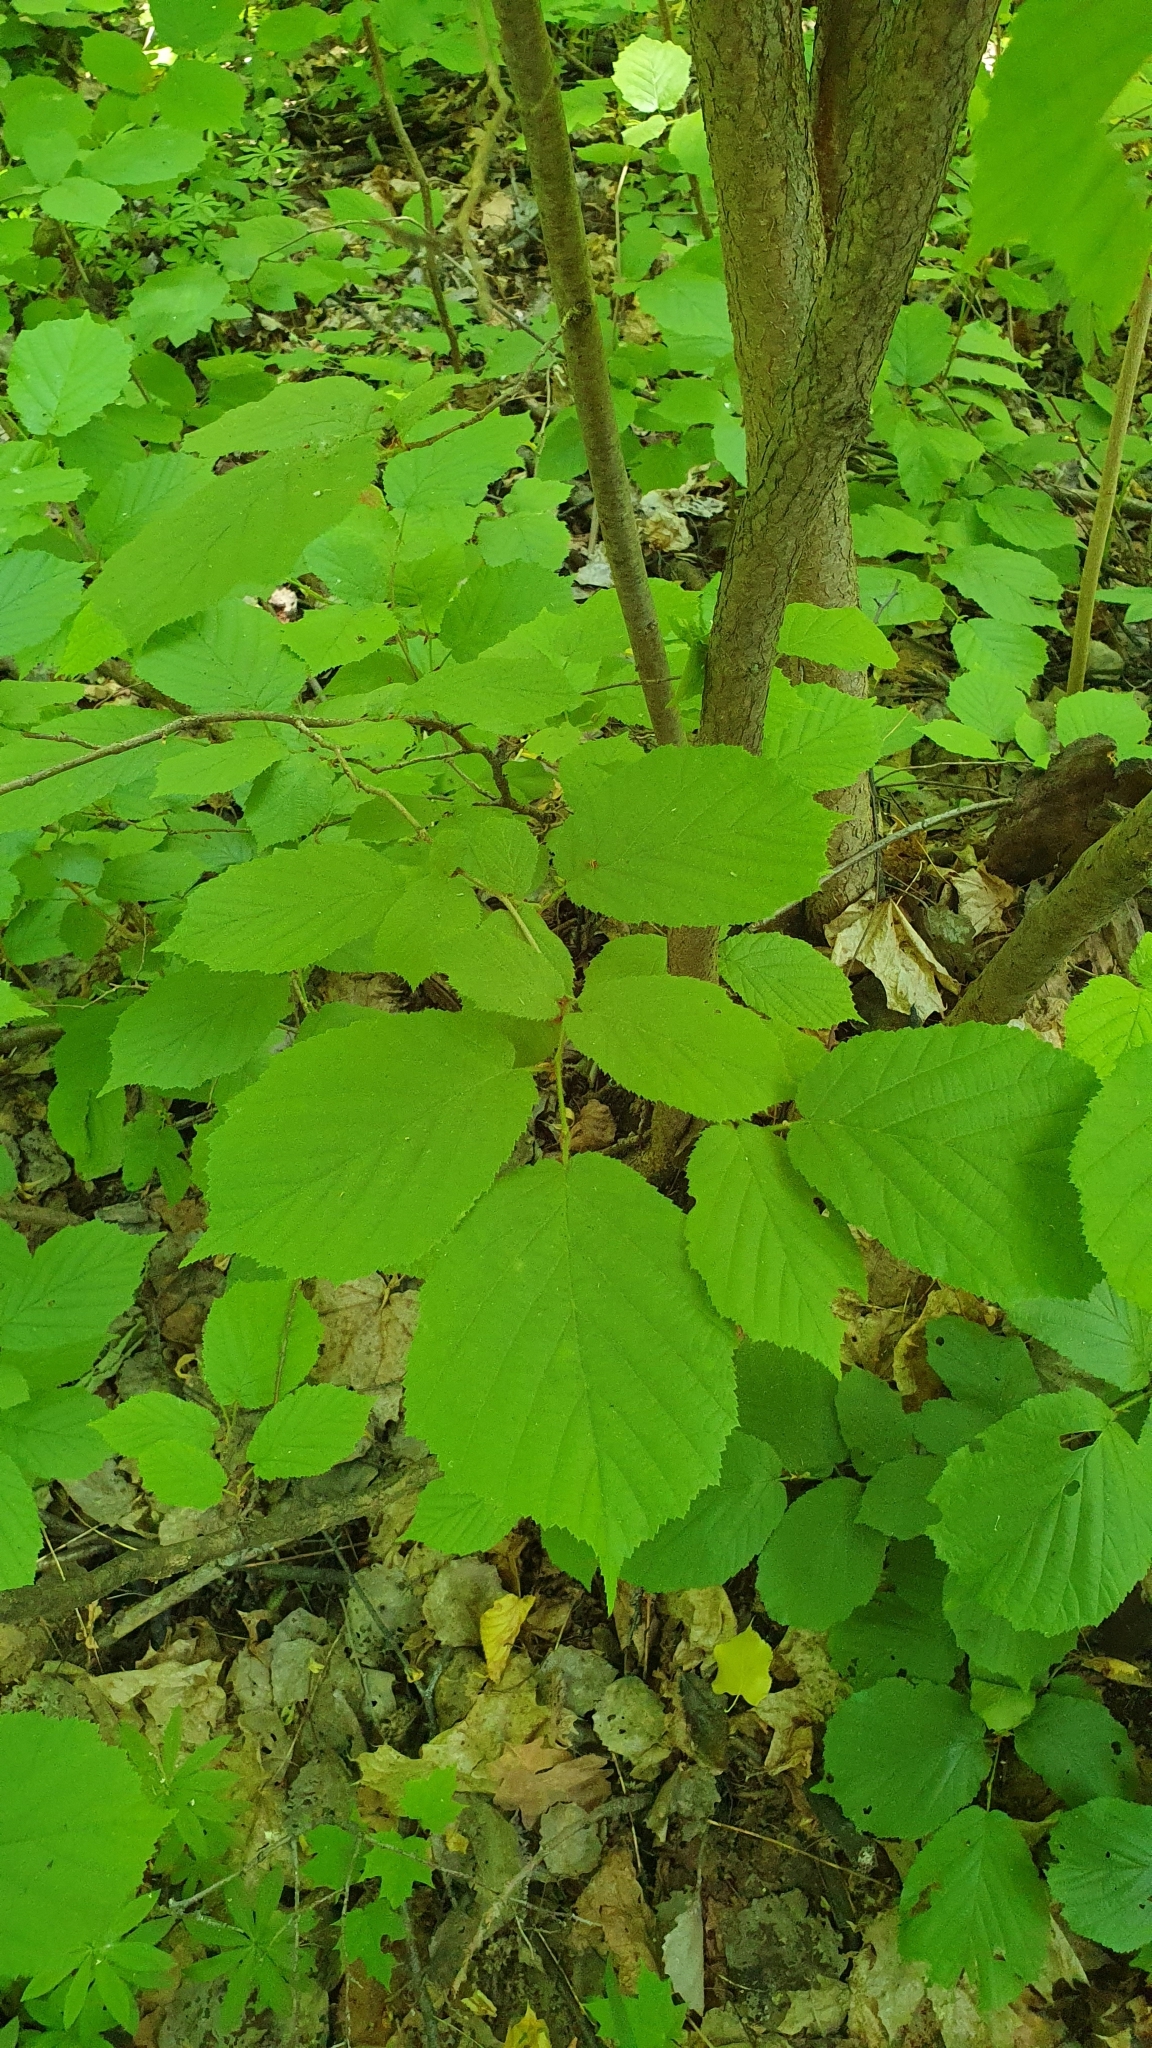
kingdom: Plantae
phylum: Tracheophyta
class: Magnoliopsida
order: Fagales
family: Betulaceae
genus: Corylus
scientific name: Corylus avellana
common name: European hazel
